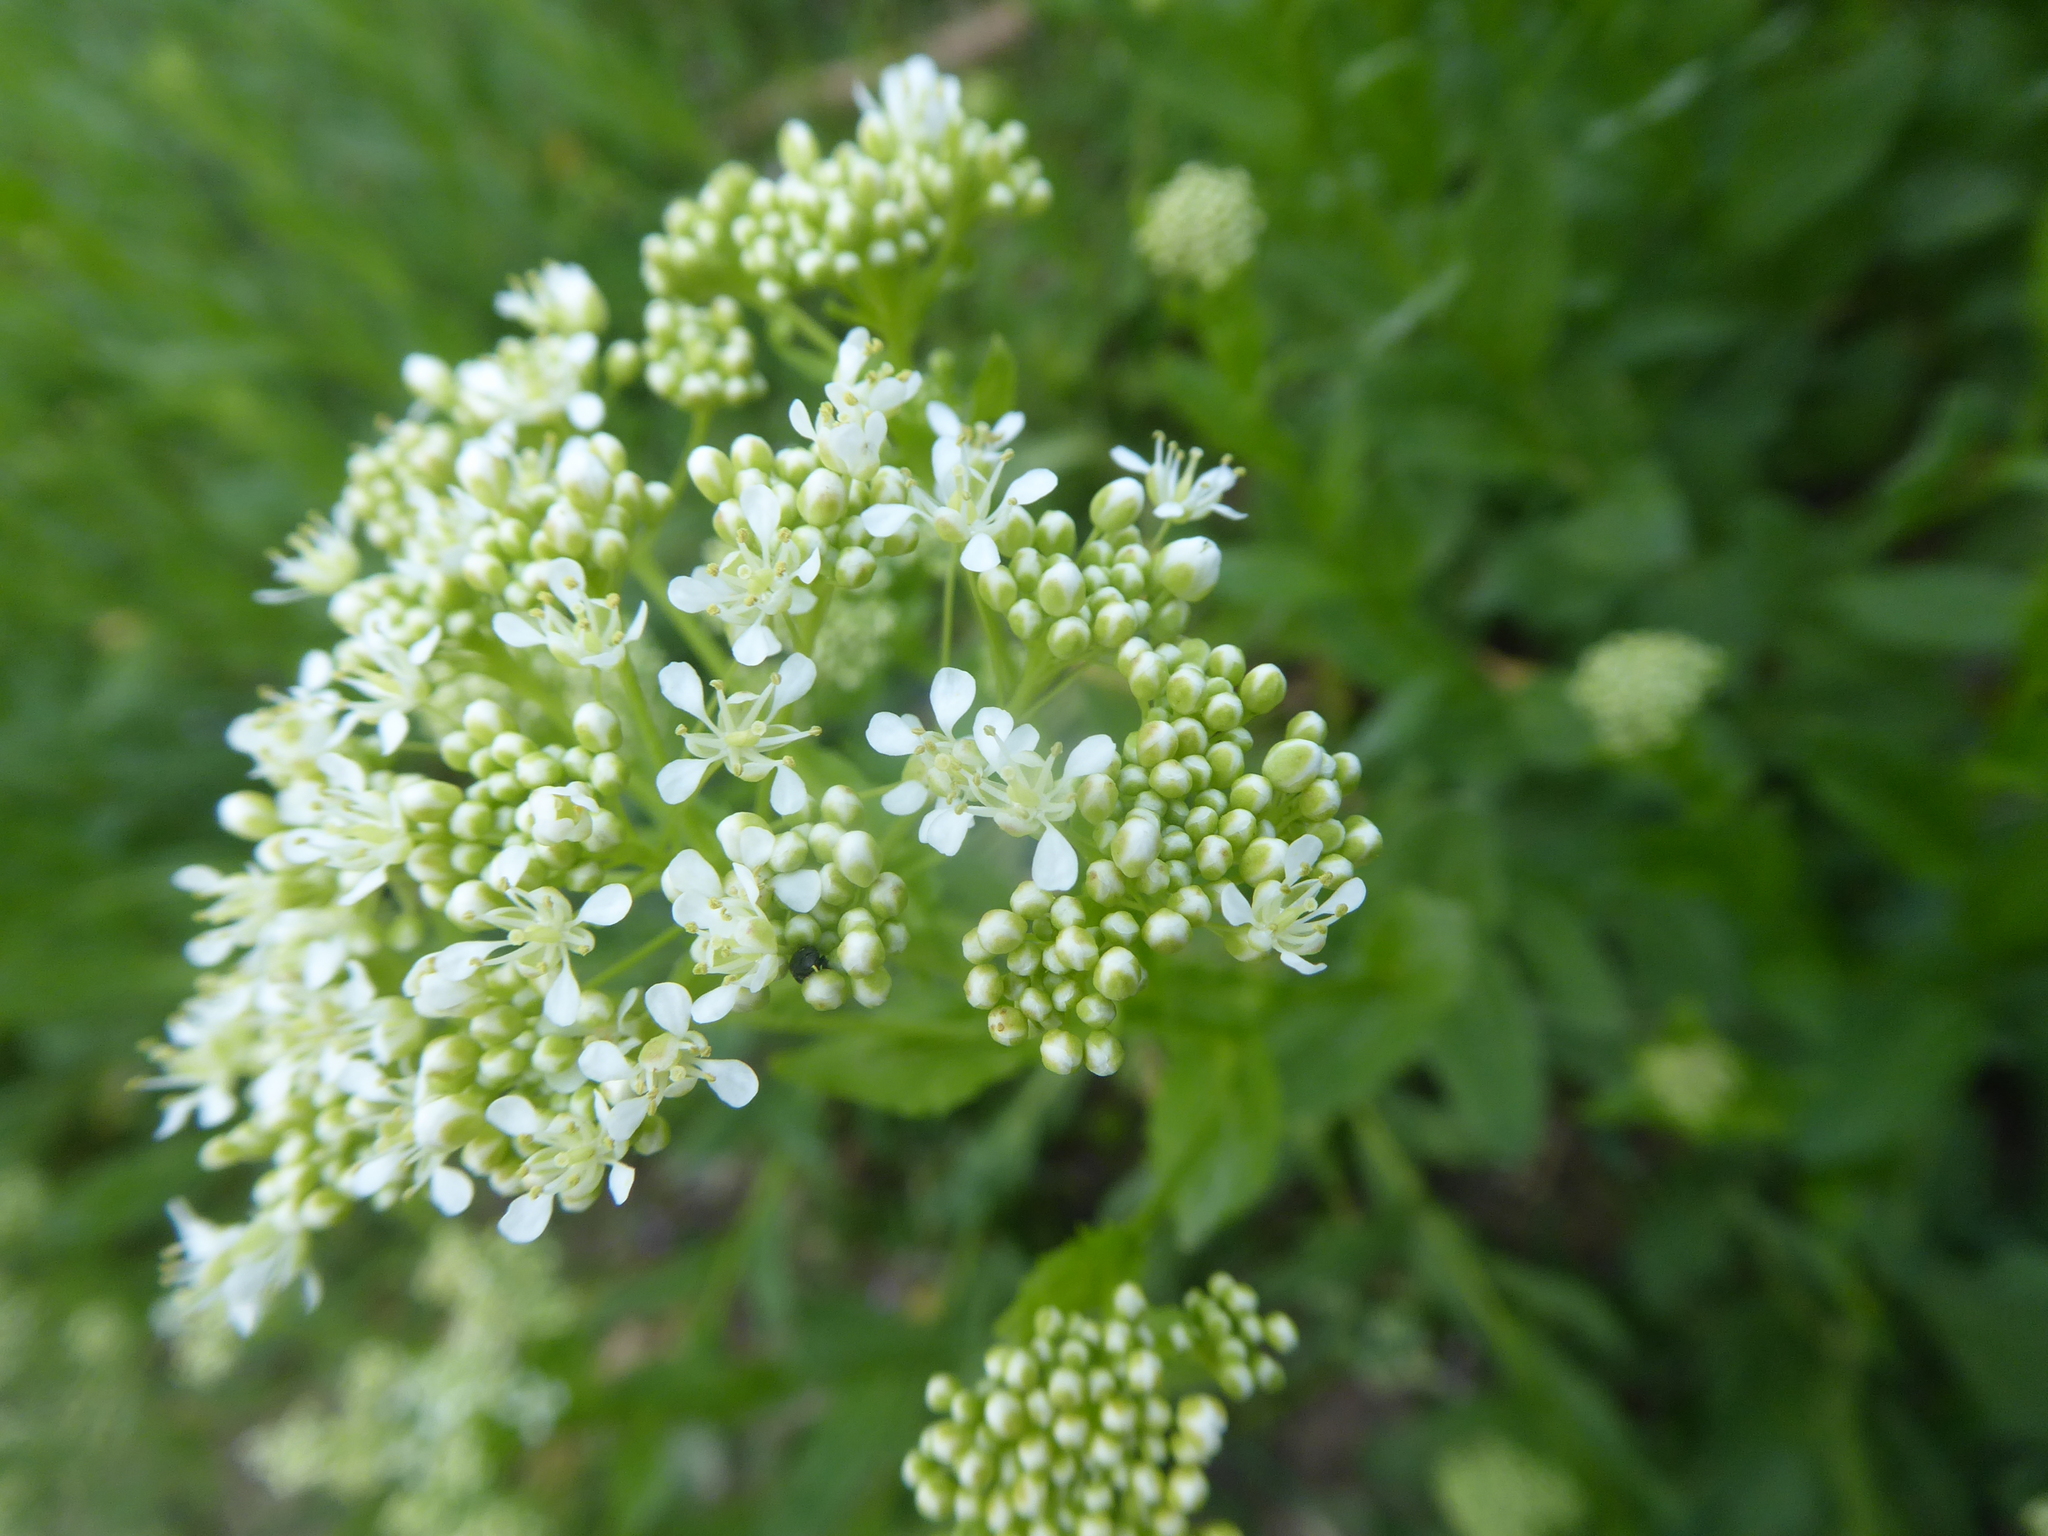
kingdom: Plantae
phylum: Tracheophyta
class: Magnoliopsida
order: Brassicales
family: Brassicaceae
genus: Lepidium
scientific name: Lepidium draba
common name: Hoary cress
